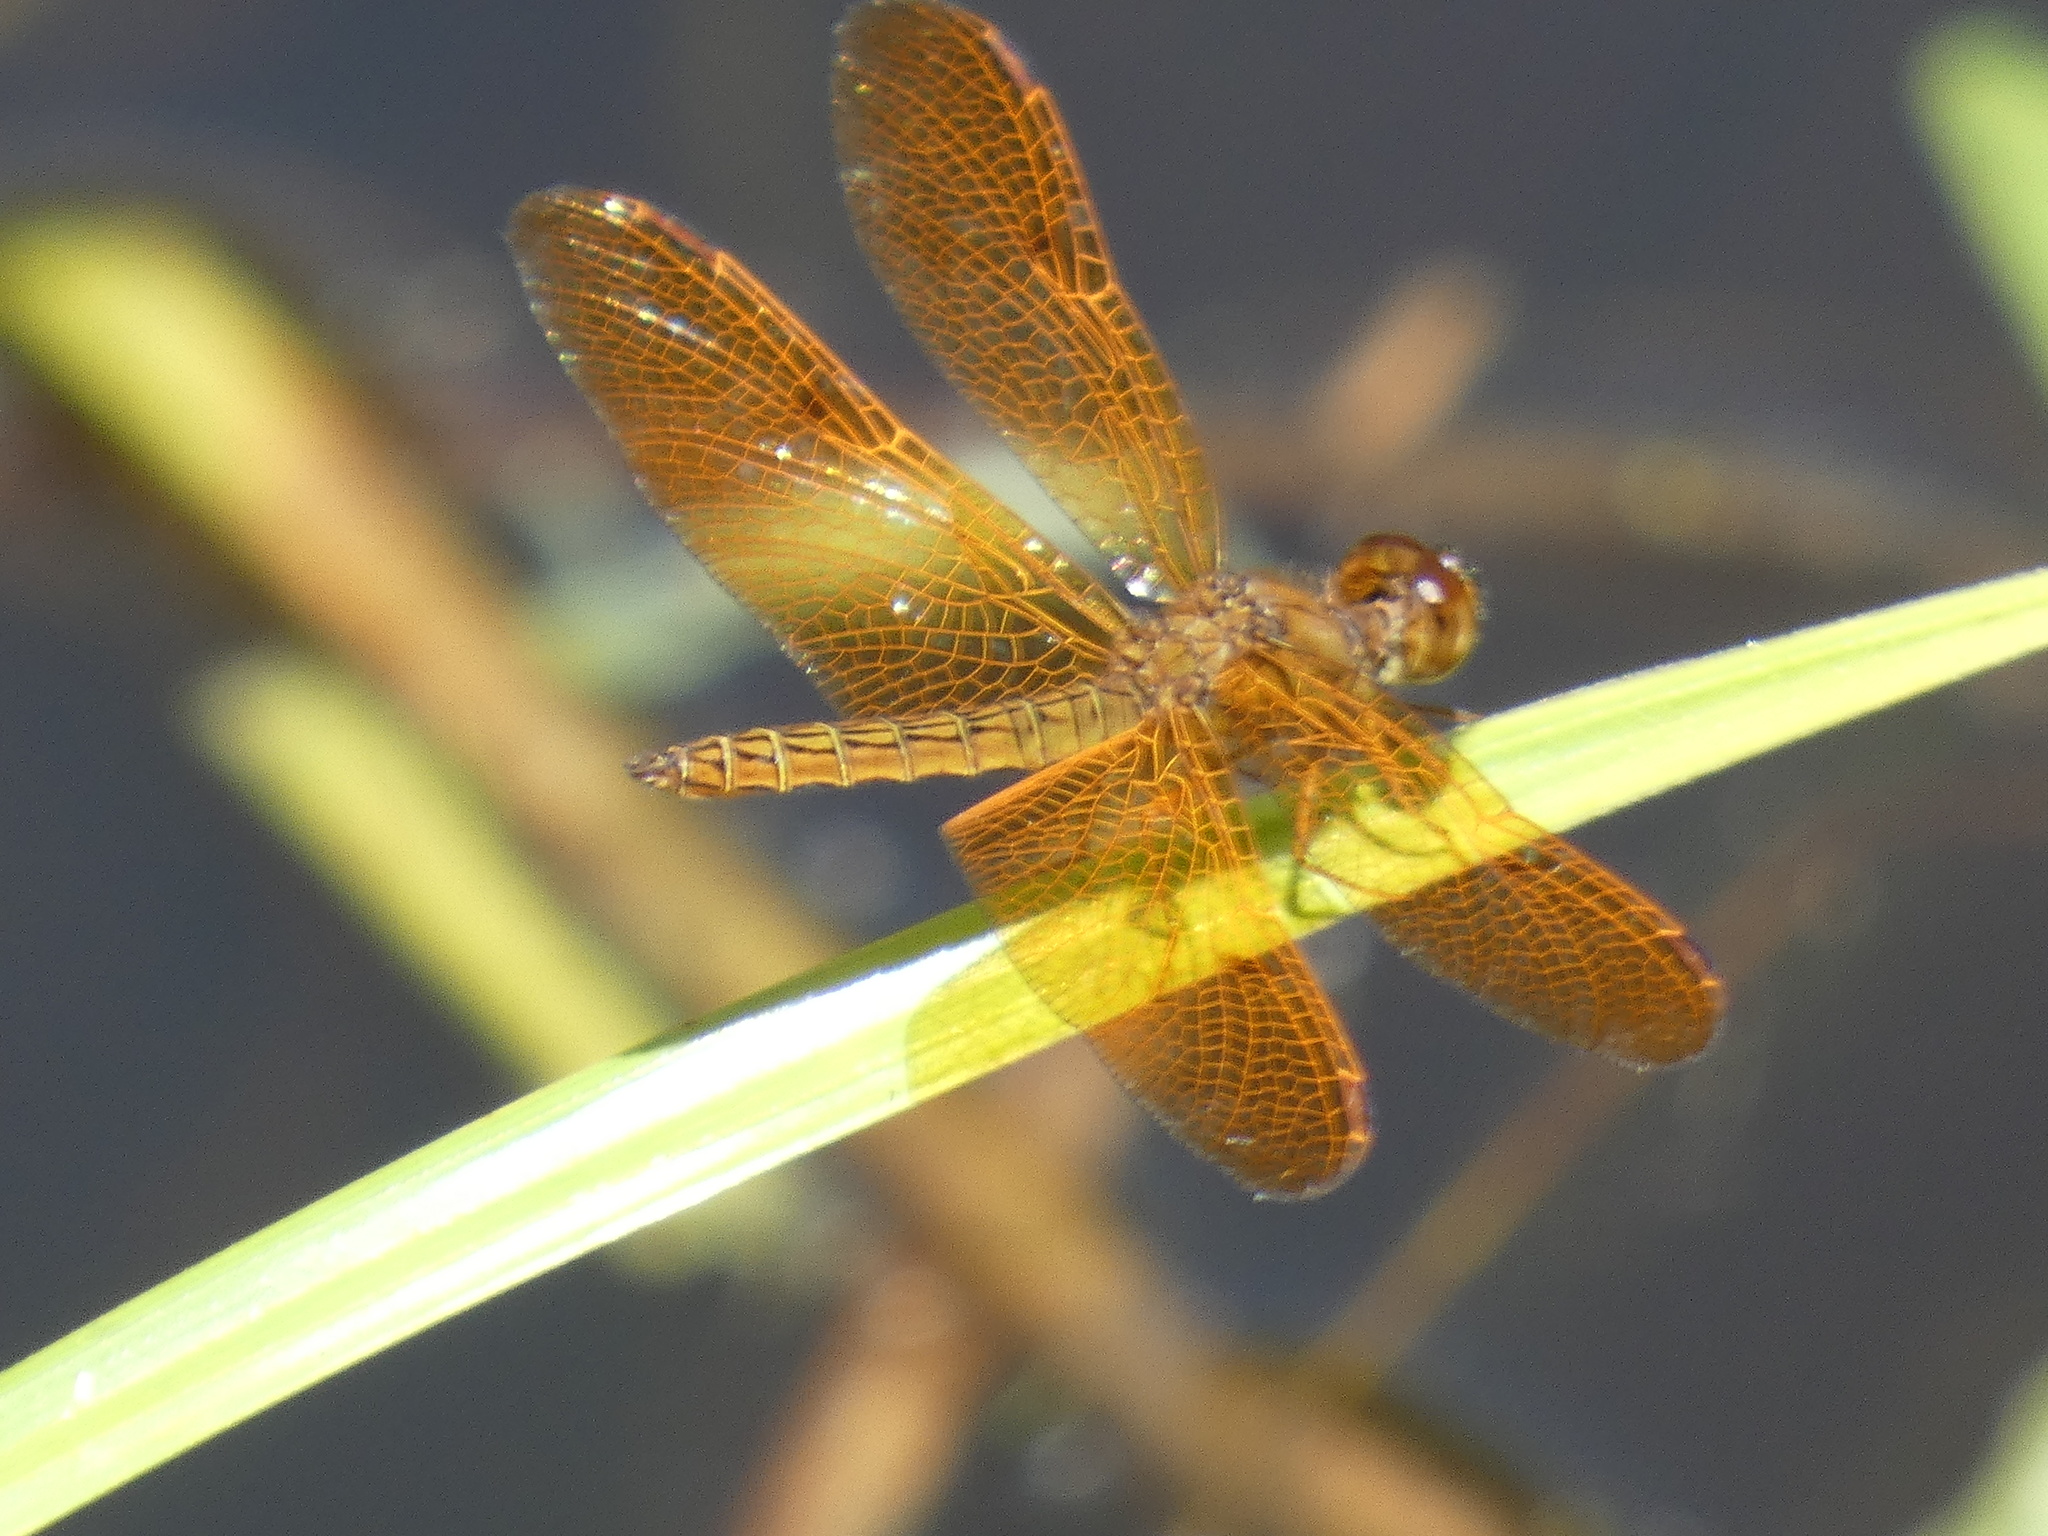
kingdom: Animalia
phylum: Arthropoda
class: Insecta
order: Odonata
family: Libellulidae
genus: Perithemis
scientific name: Perithemis icteroptera
